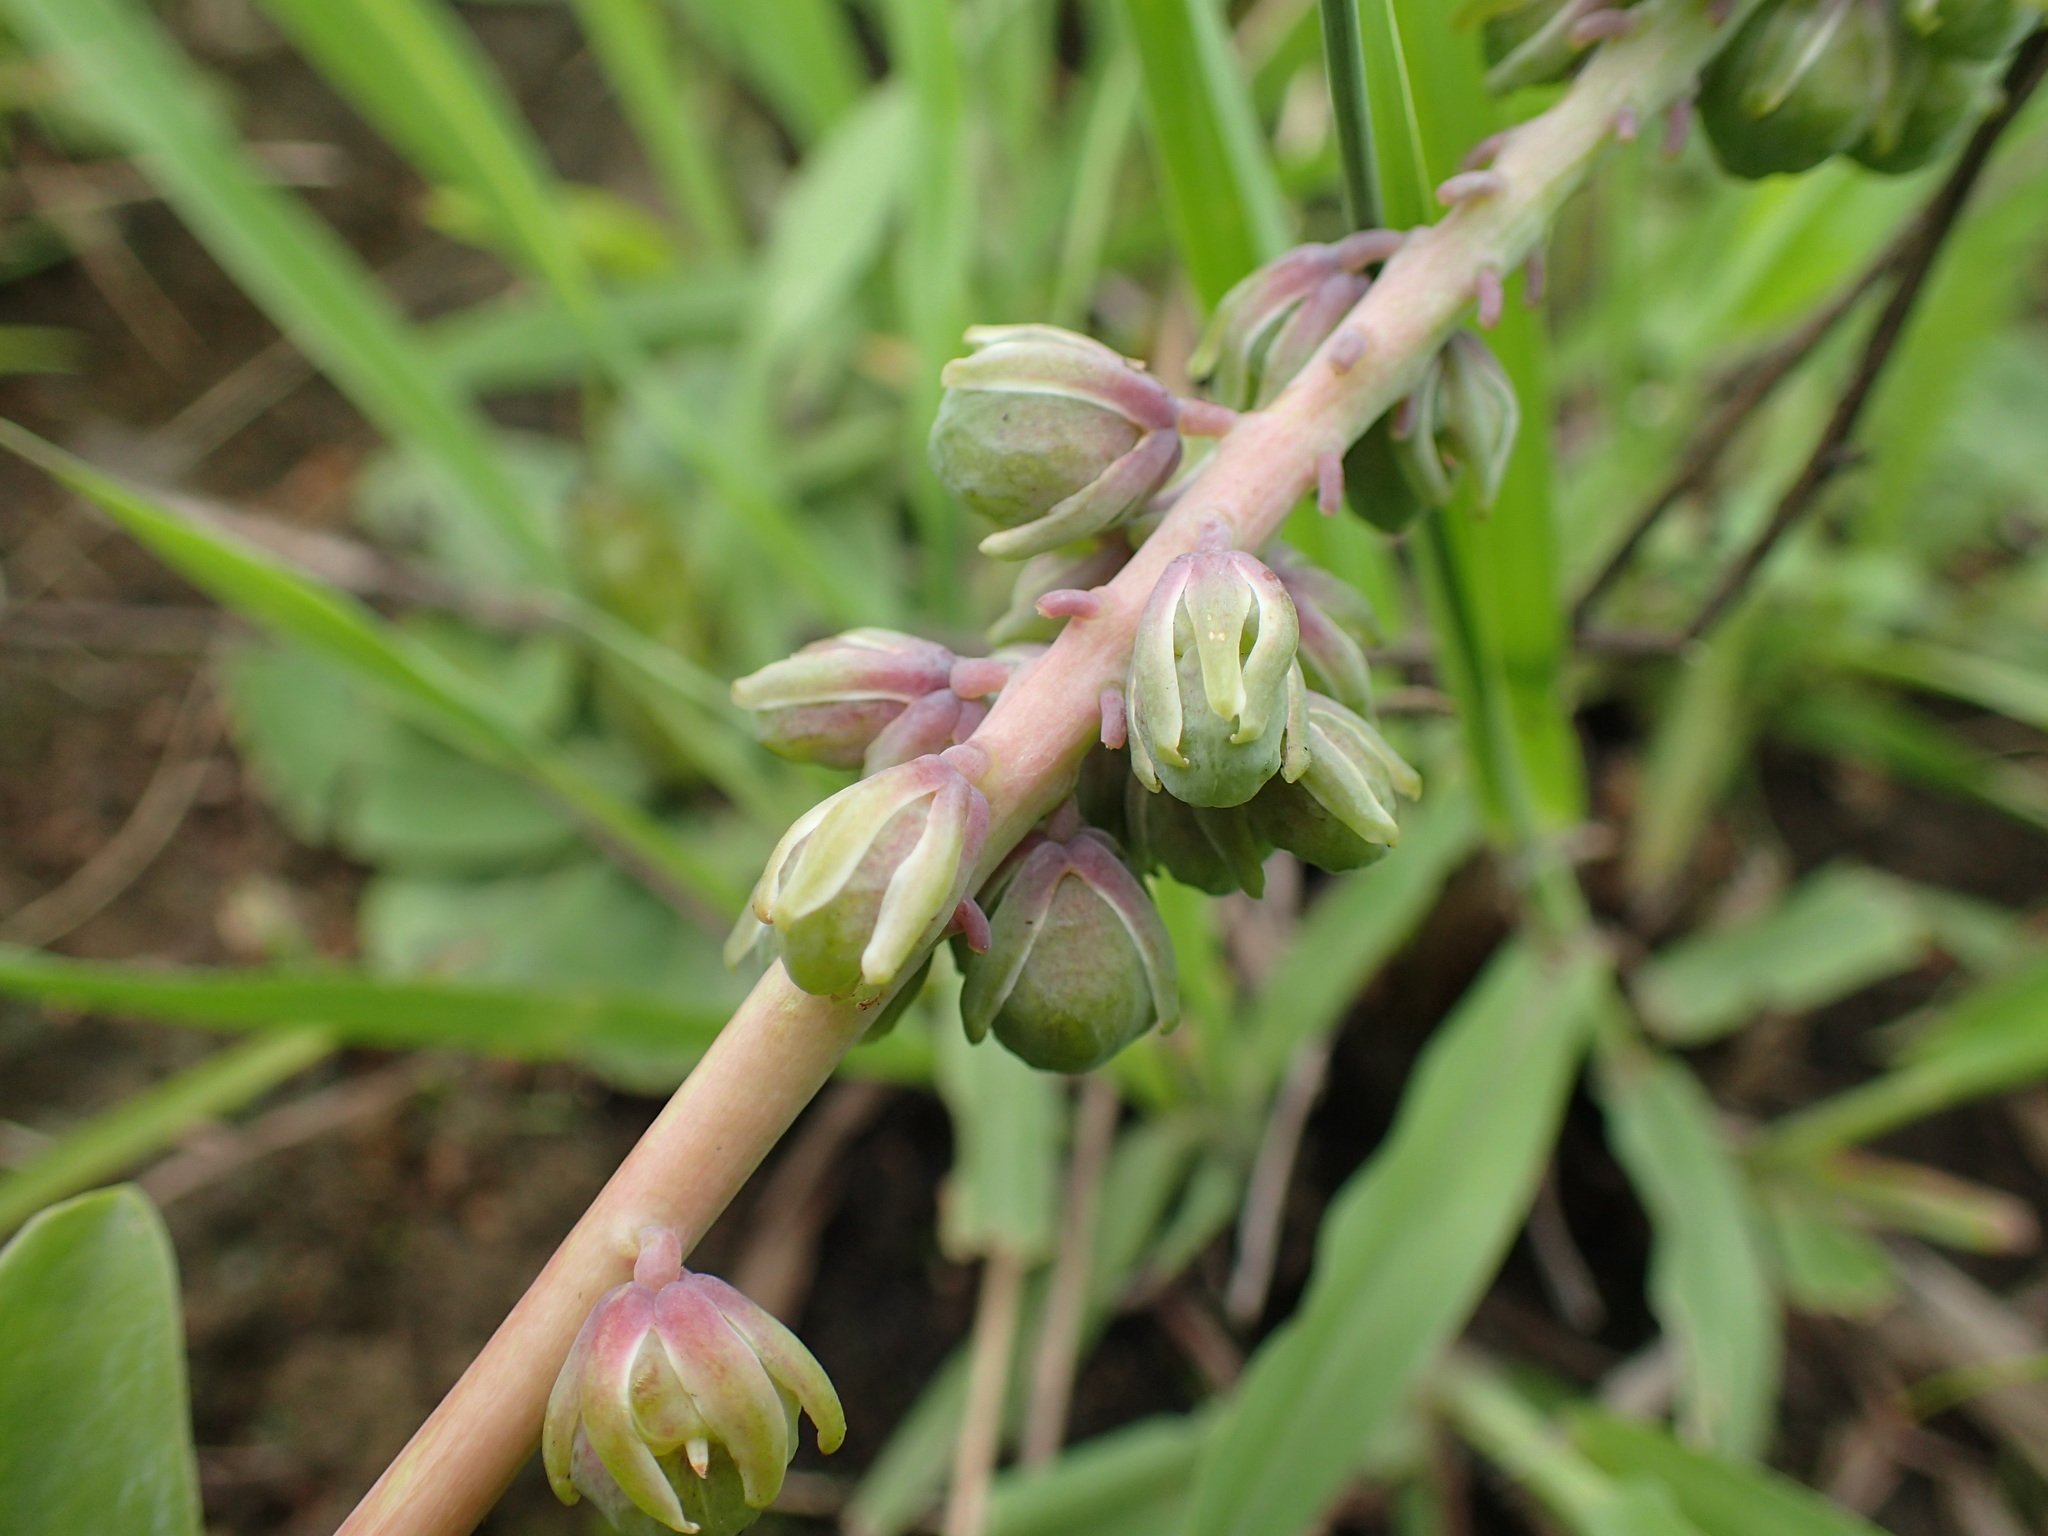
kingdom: Plantae
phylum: Tracheophyta
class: Liliopsida
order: Asparagales
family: Asparagaceae
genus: Resnova
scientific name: Resnova humifusa
